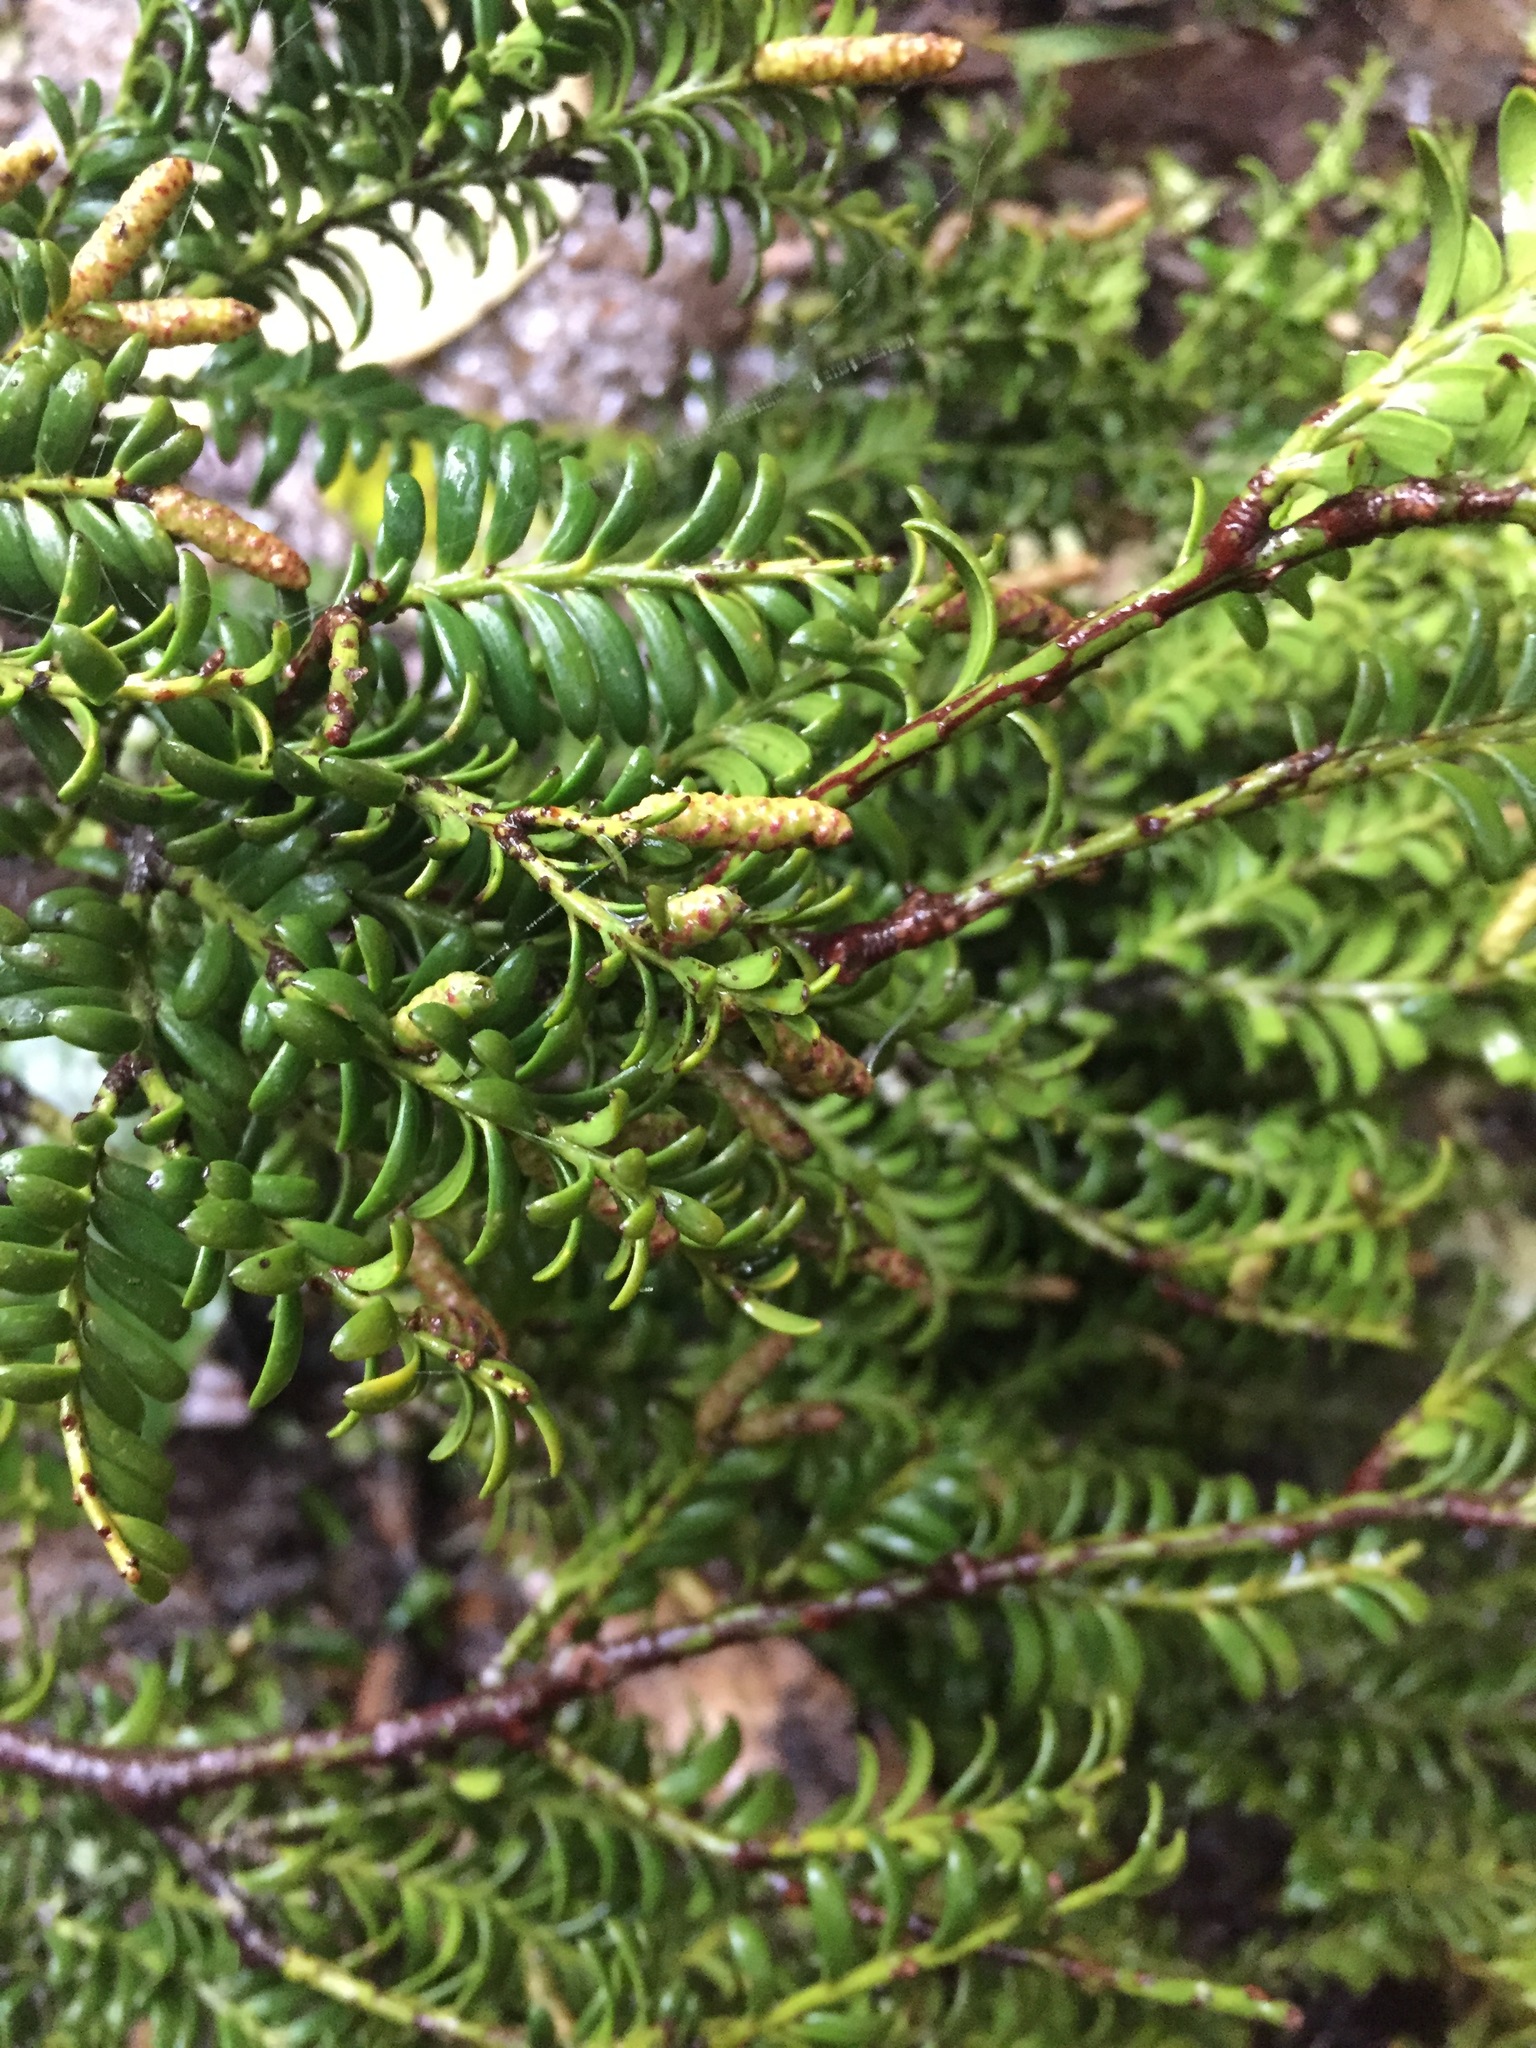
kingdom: Plantae
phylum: Tracheophyta
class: Pinopsida
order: Pinales
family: Podocarpaceae
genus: Prumnopitys
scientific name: Prumnopitys ferruginea
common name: Brown pine
